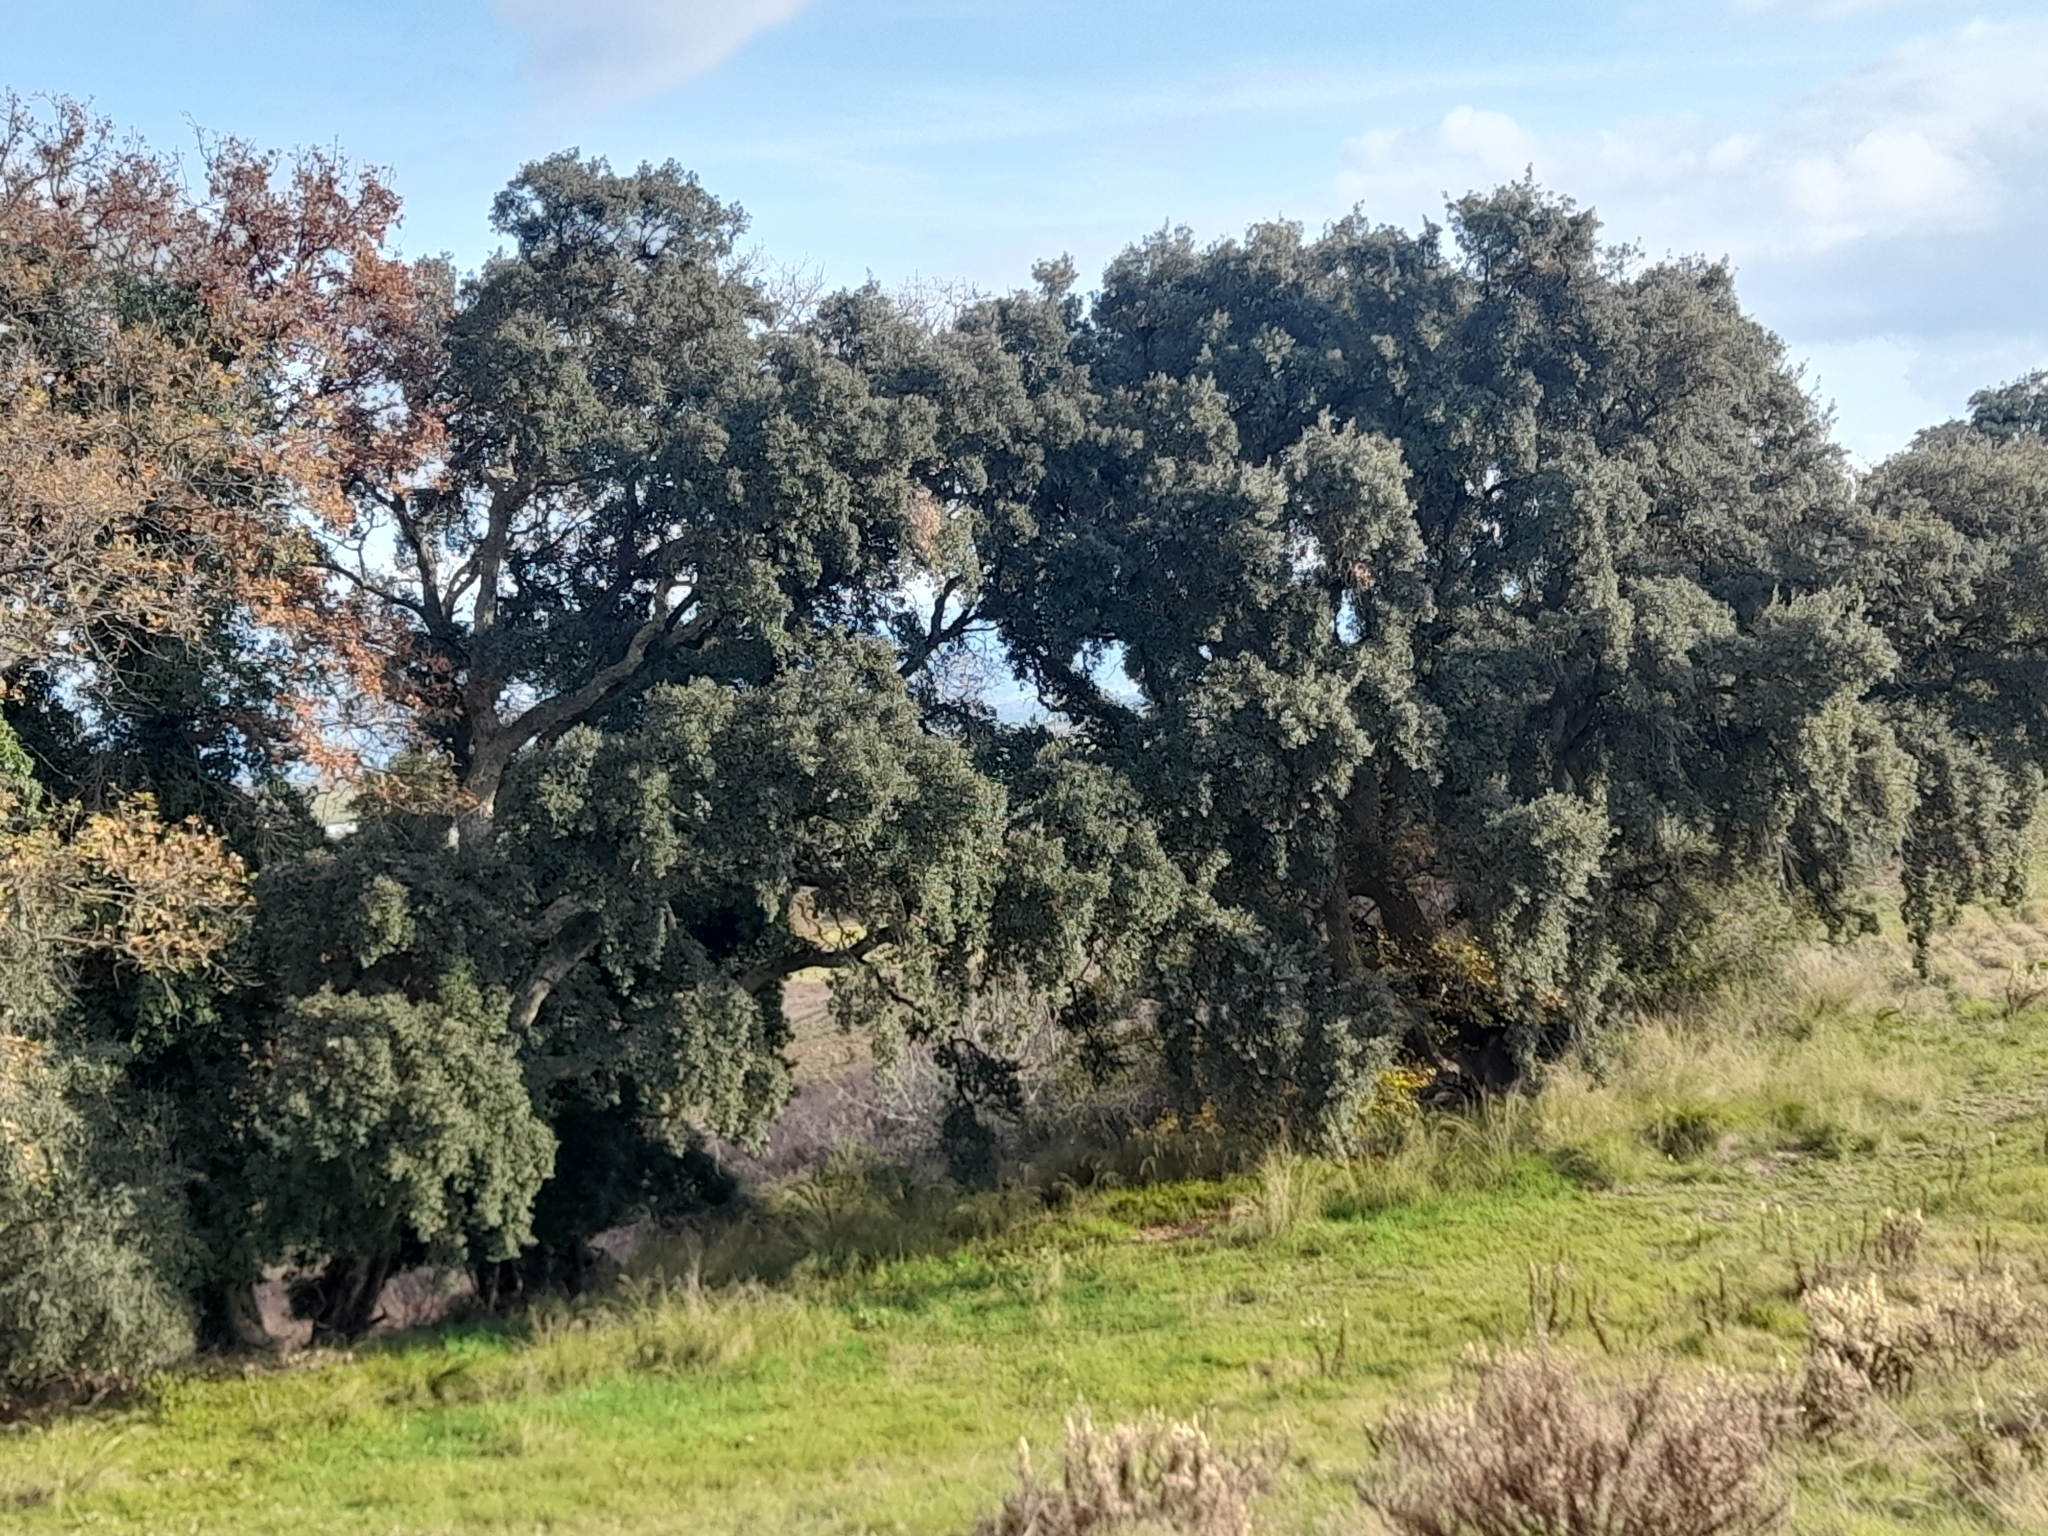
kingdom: Plantae
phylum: Tracheophyta
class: Magnoliopsida
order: Fagales
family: Fagaceae
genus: Quercus
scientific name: Quercus suber
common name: Cork oak
